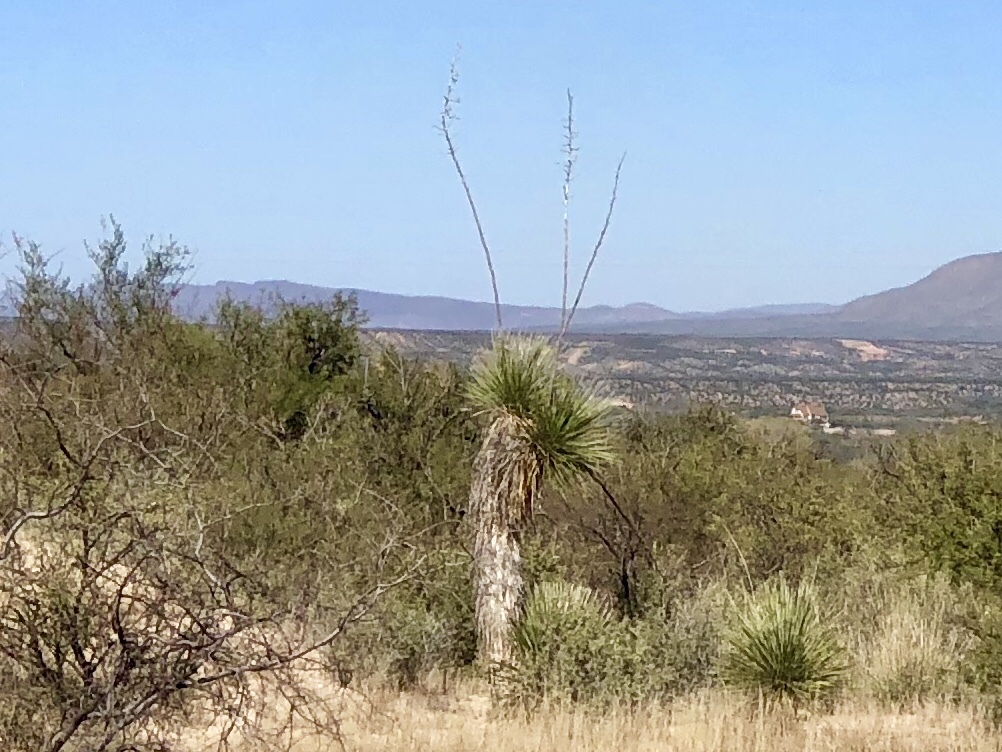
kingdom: Plantae
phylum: Tracheophyta
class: Liliopsida
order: Asparagales
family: Asparagaceae
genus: Yucca
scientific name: Yucca elata
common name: Palmella
